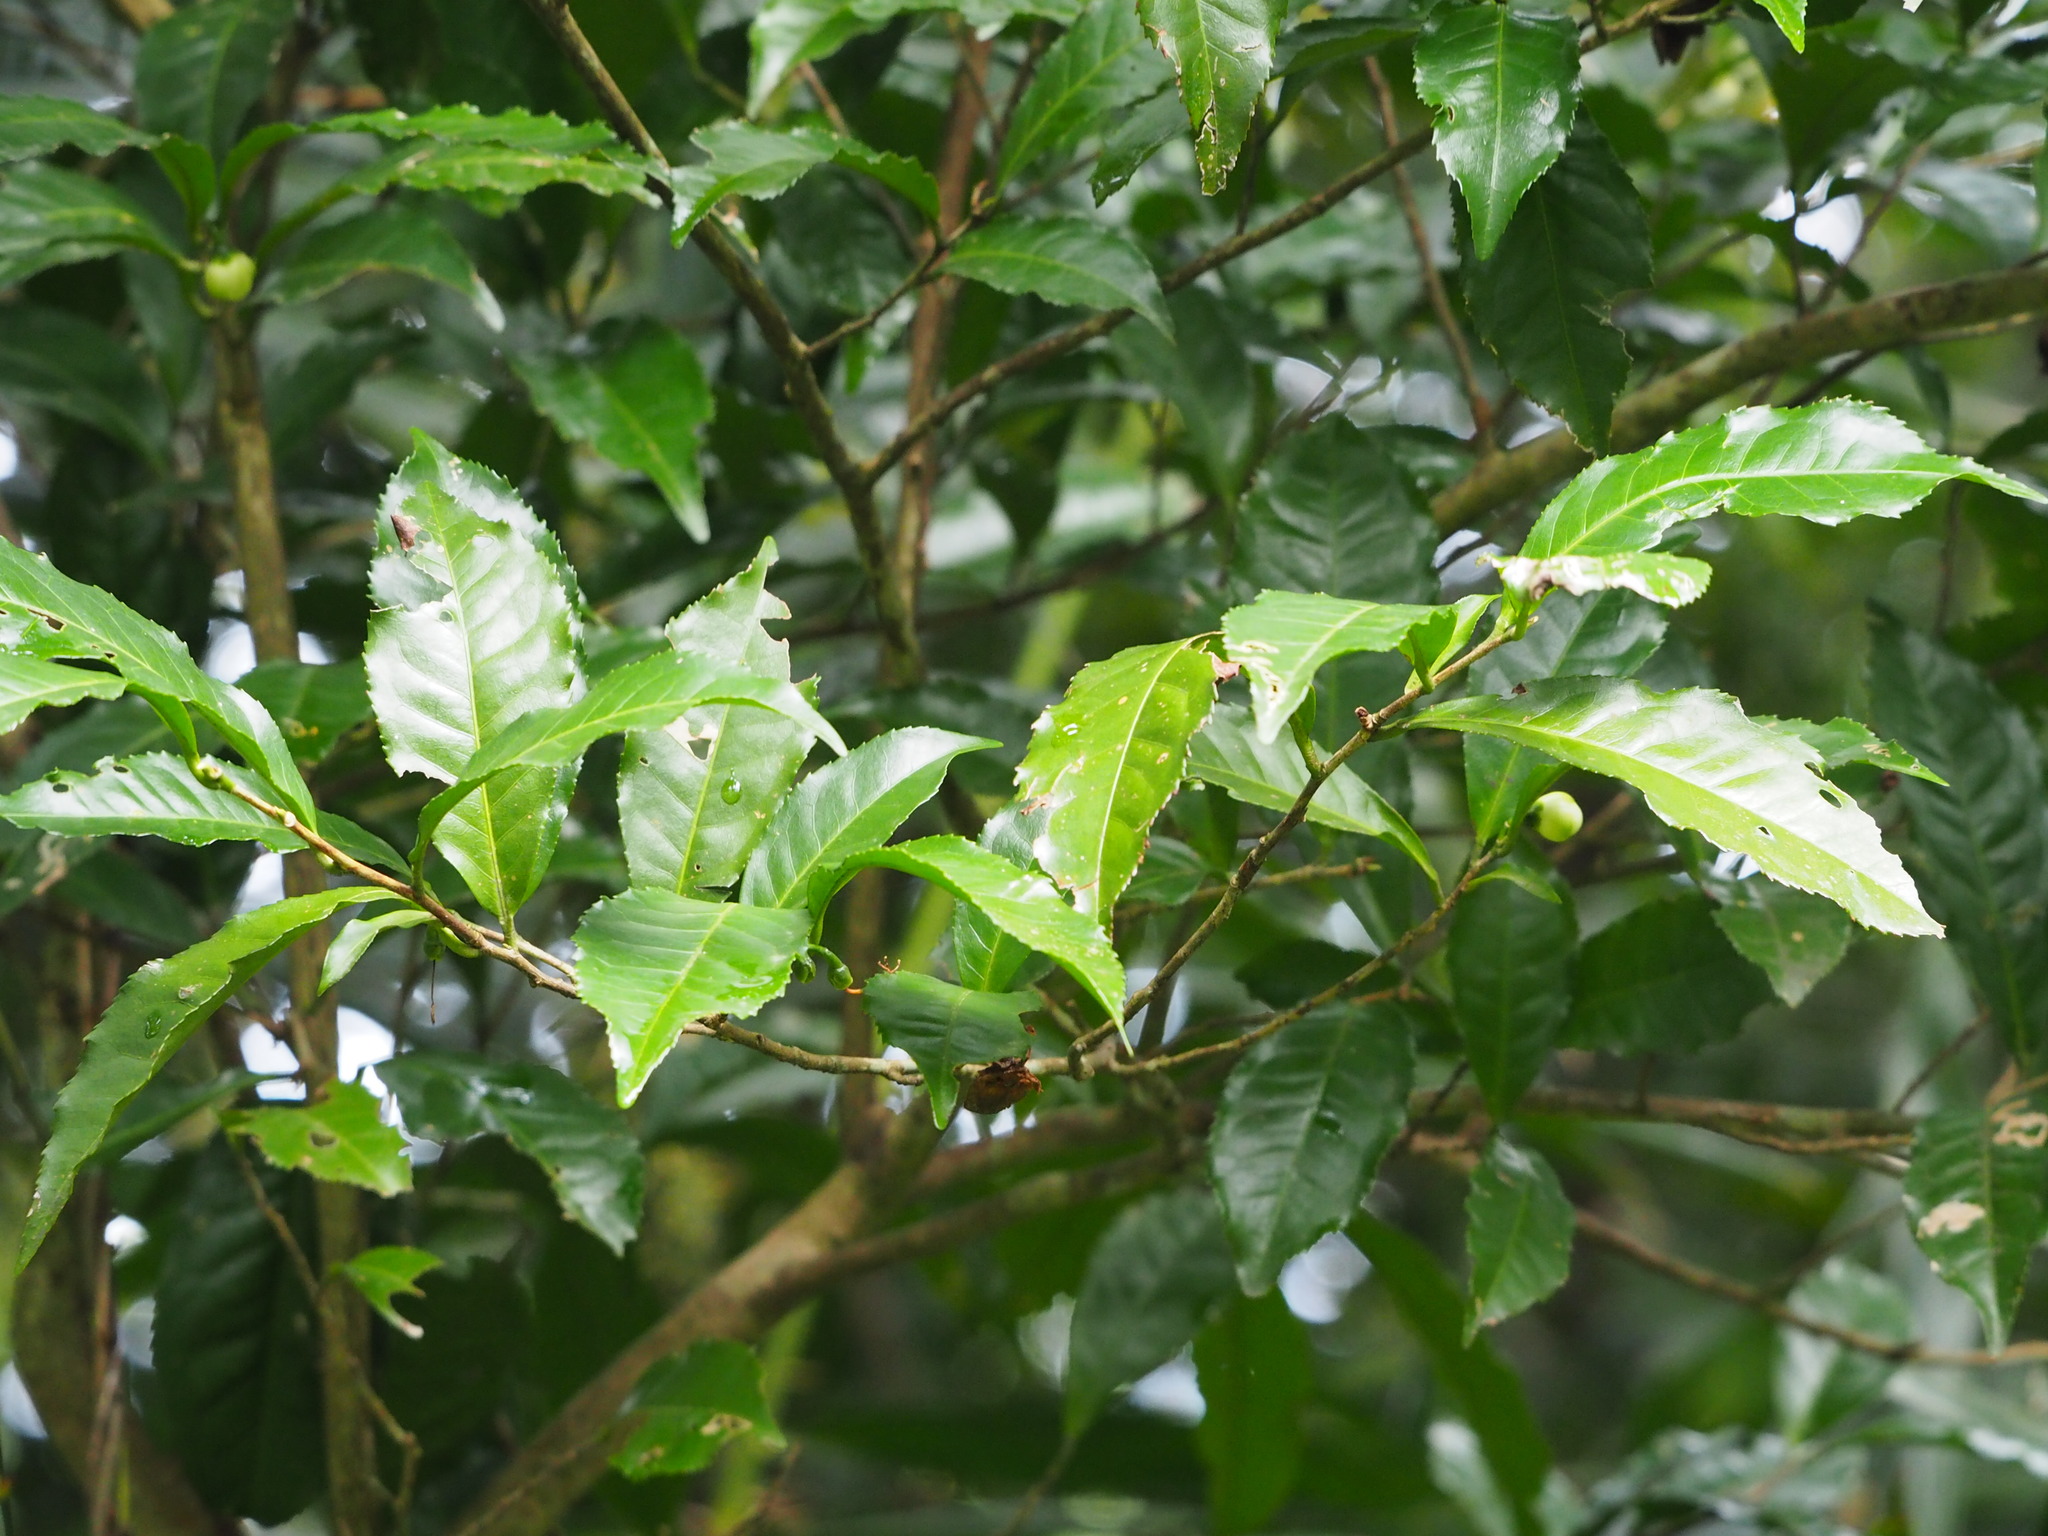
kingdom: Plantae
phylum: Tracheophyta
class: Magnoliopsida
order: Ericales
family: Theaceae
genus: Camellia
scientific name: Camellia sinensis
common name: Tea
